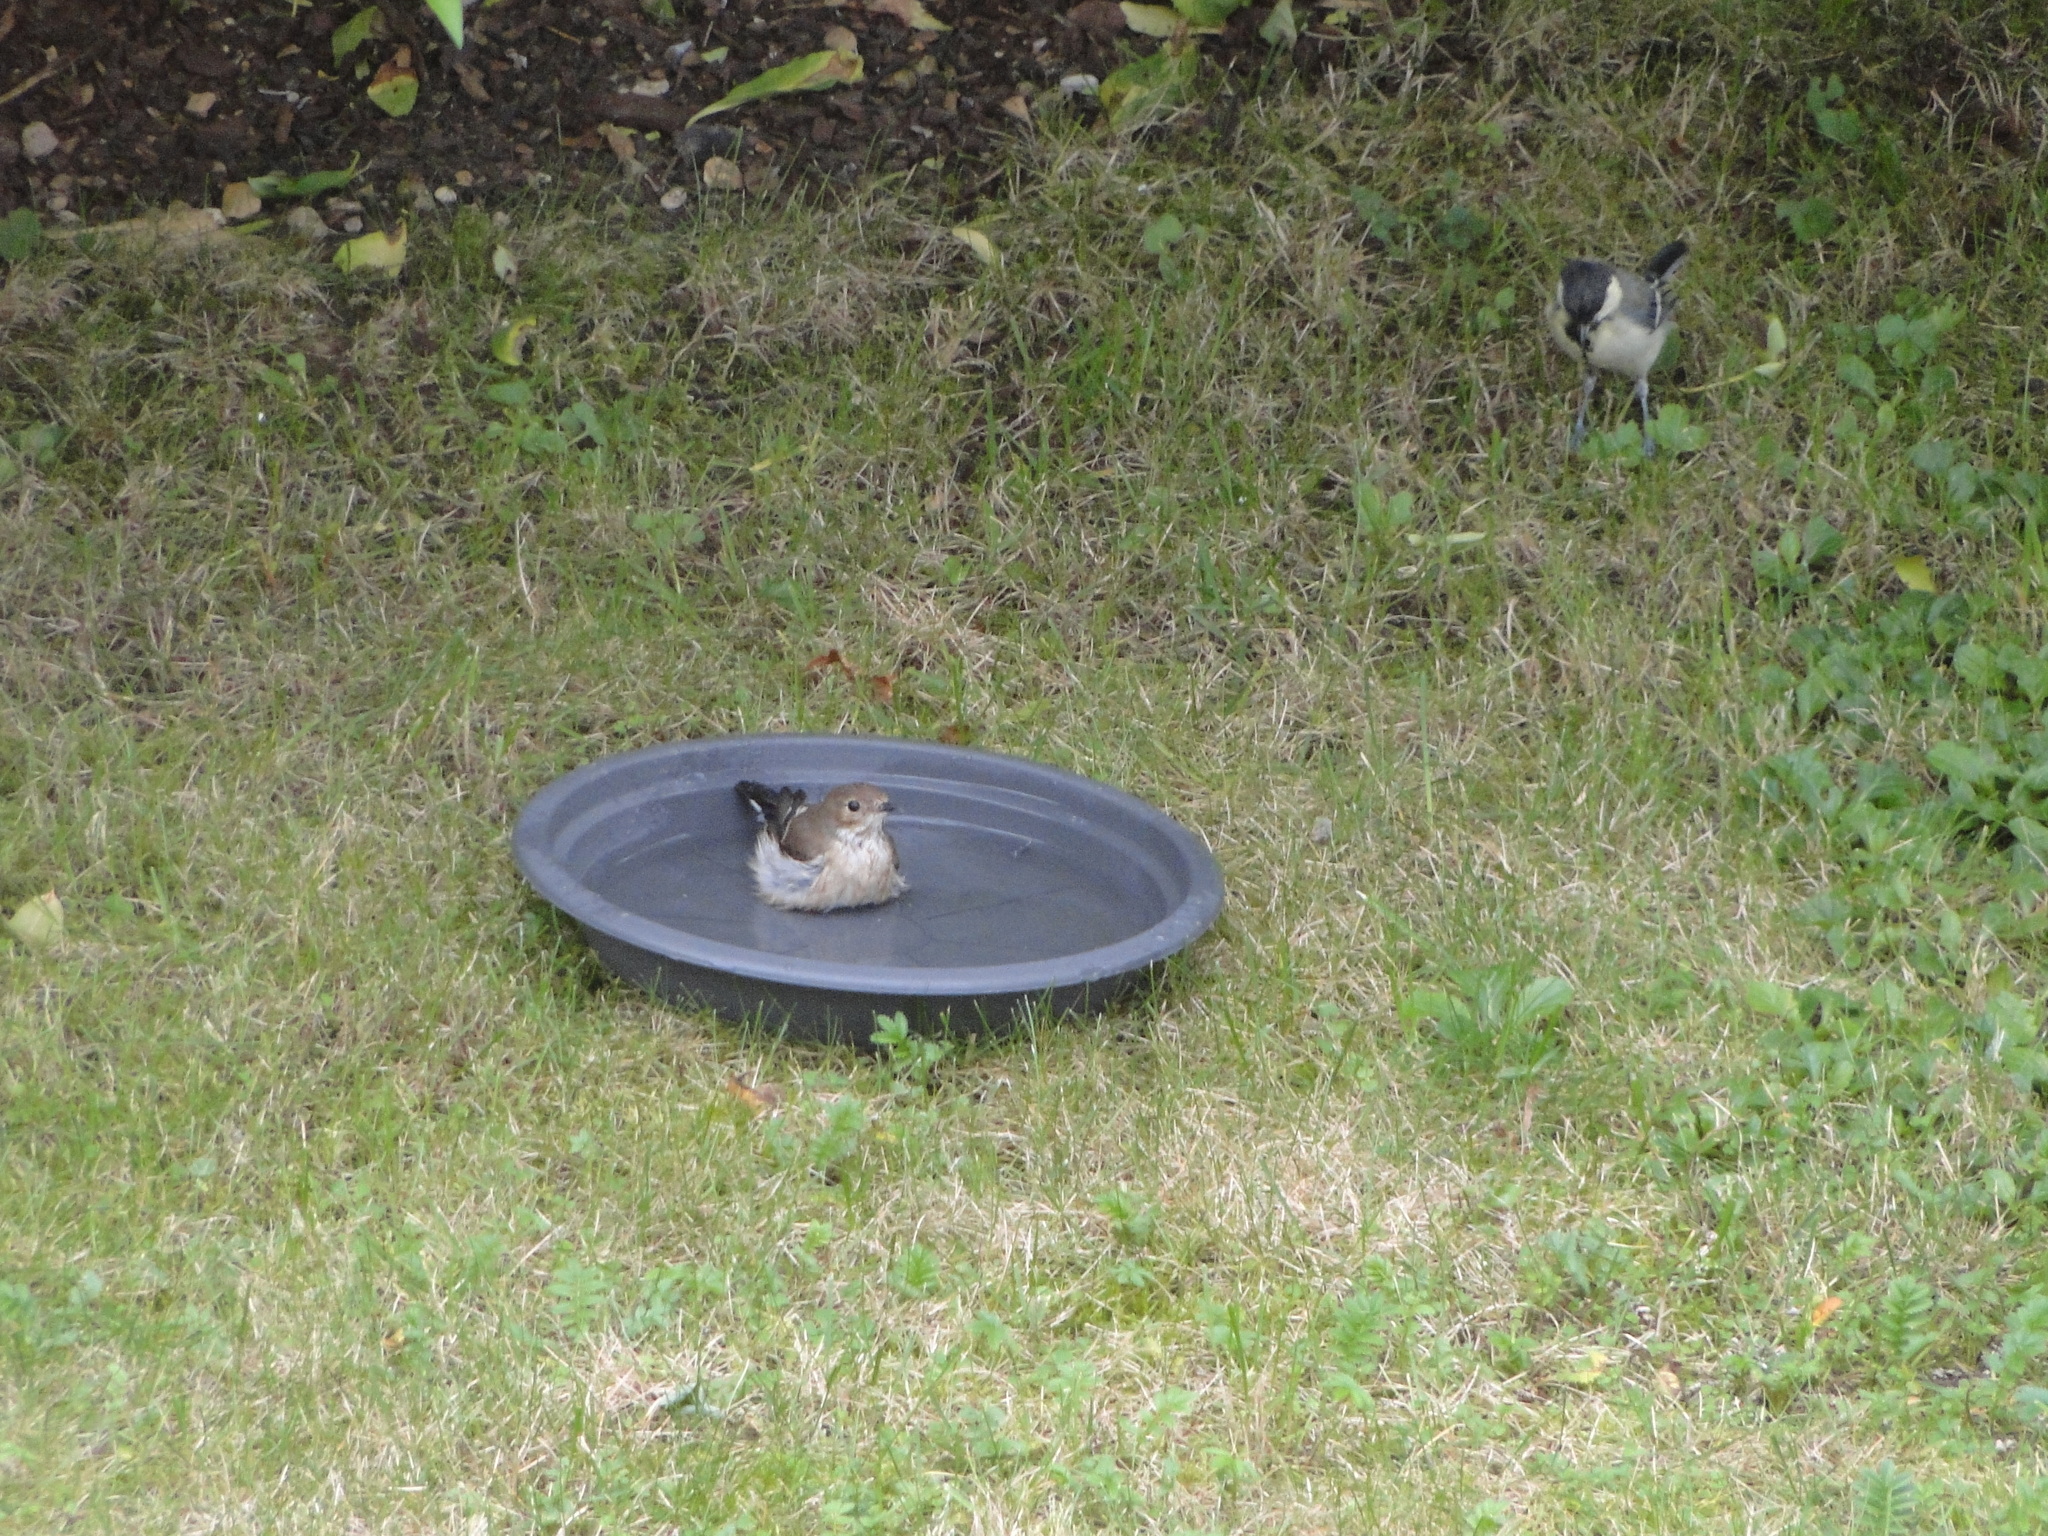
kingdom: Animalia
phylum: Chordata
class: Aves
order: Passeriformes
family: Muscicapidae
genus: Ficedula
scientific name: Ficedula hypoleuca
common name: European pied flycatcher
